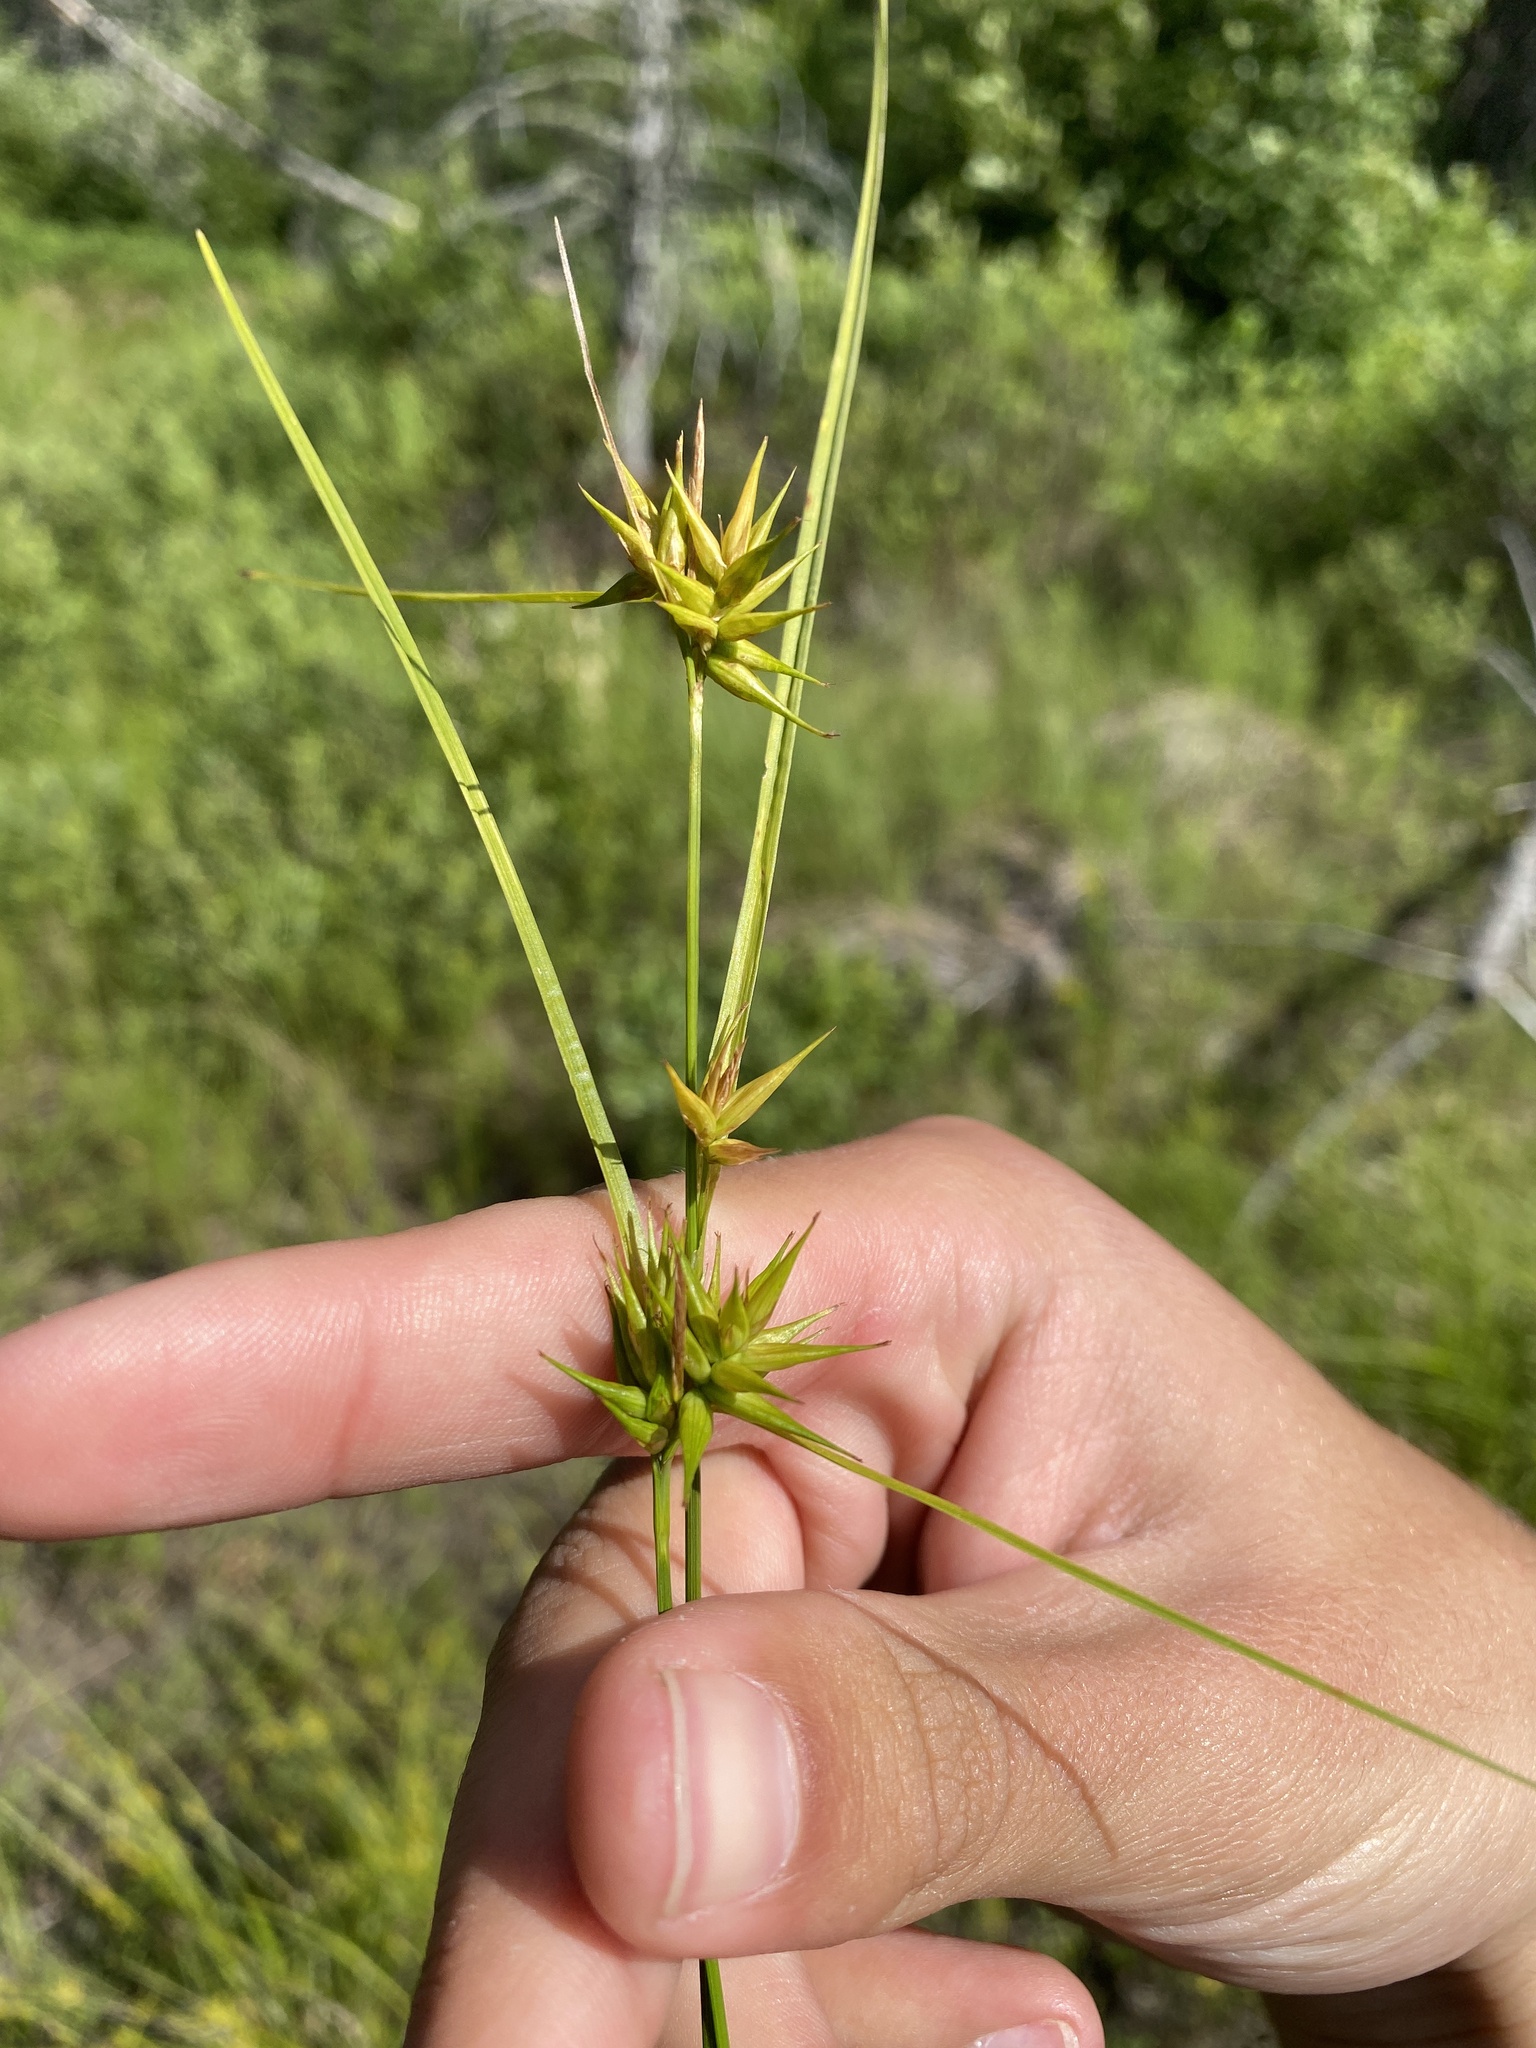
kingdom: Plantae
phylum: Tracheophyta
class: Liliopsida
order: Poales
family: Cyperaceae
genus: Carex
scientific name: Carex michauxiana
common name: Michaux's sedge
